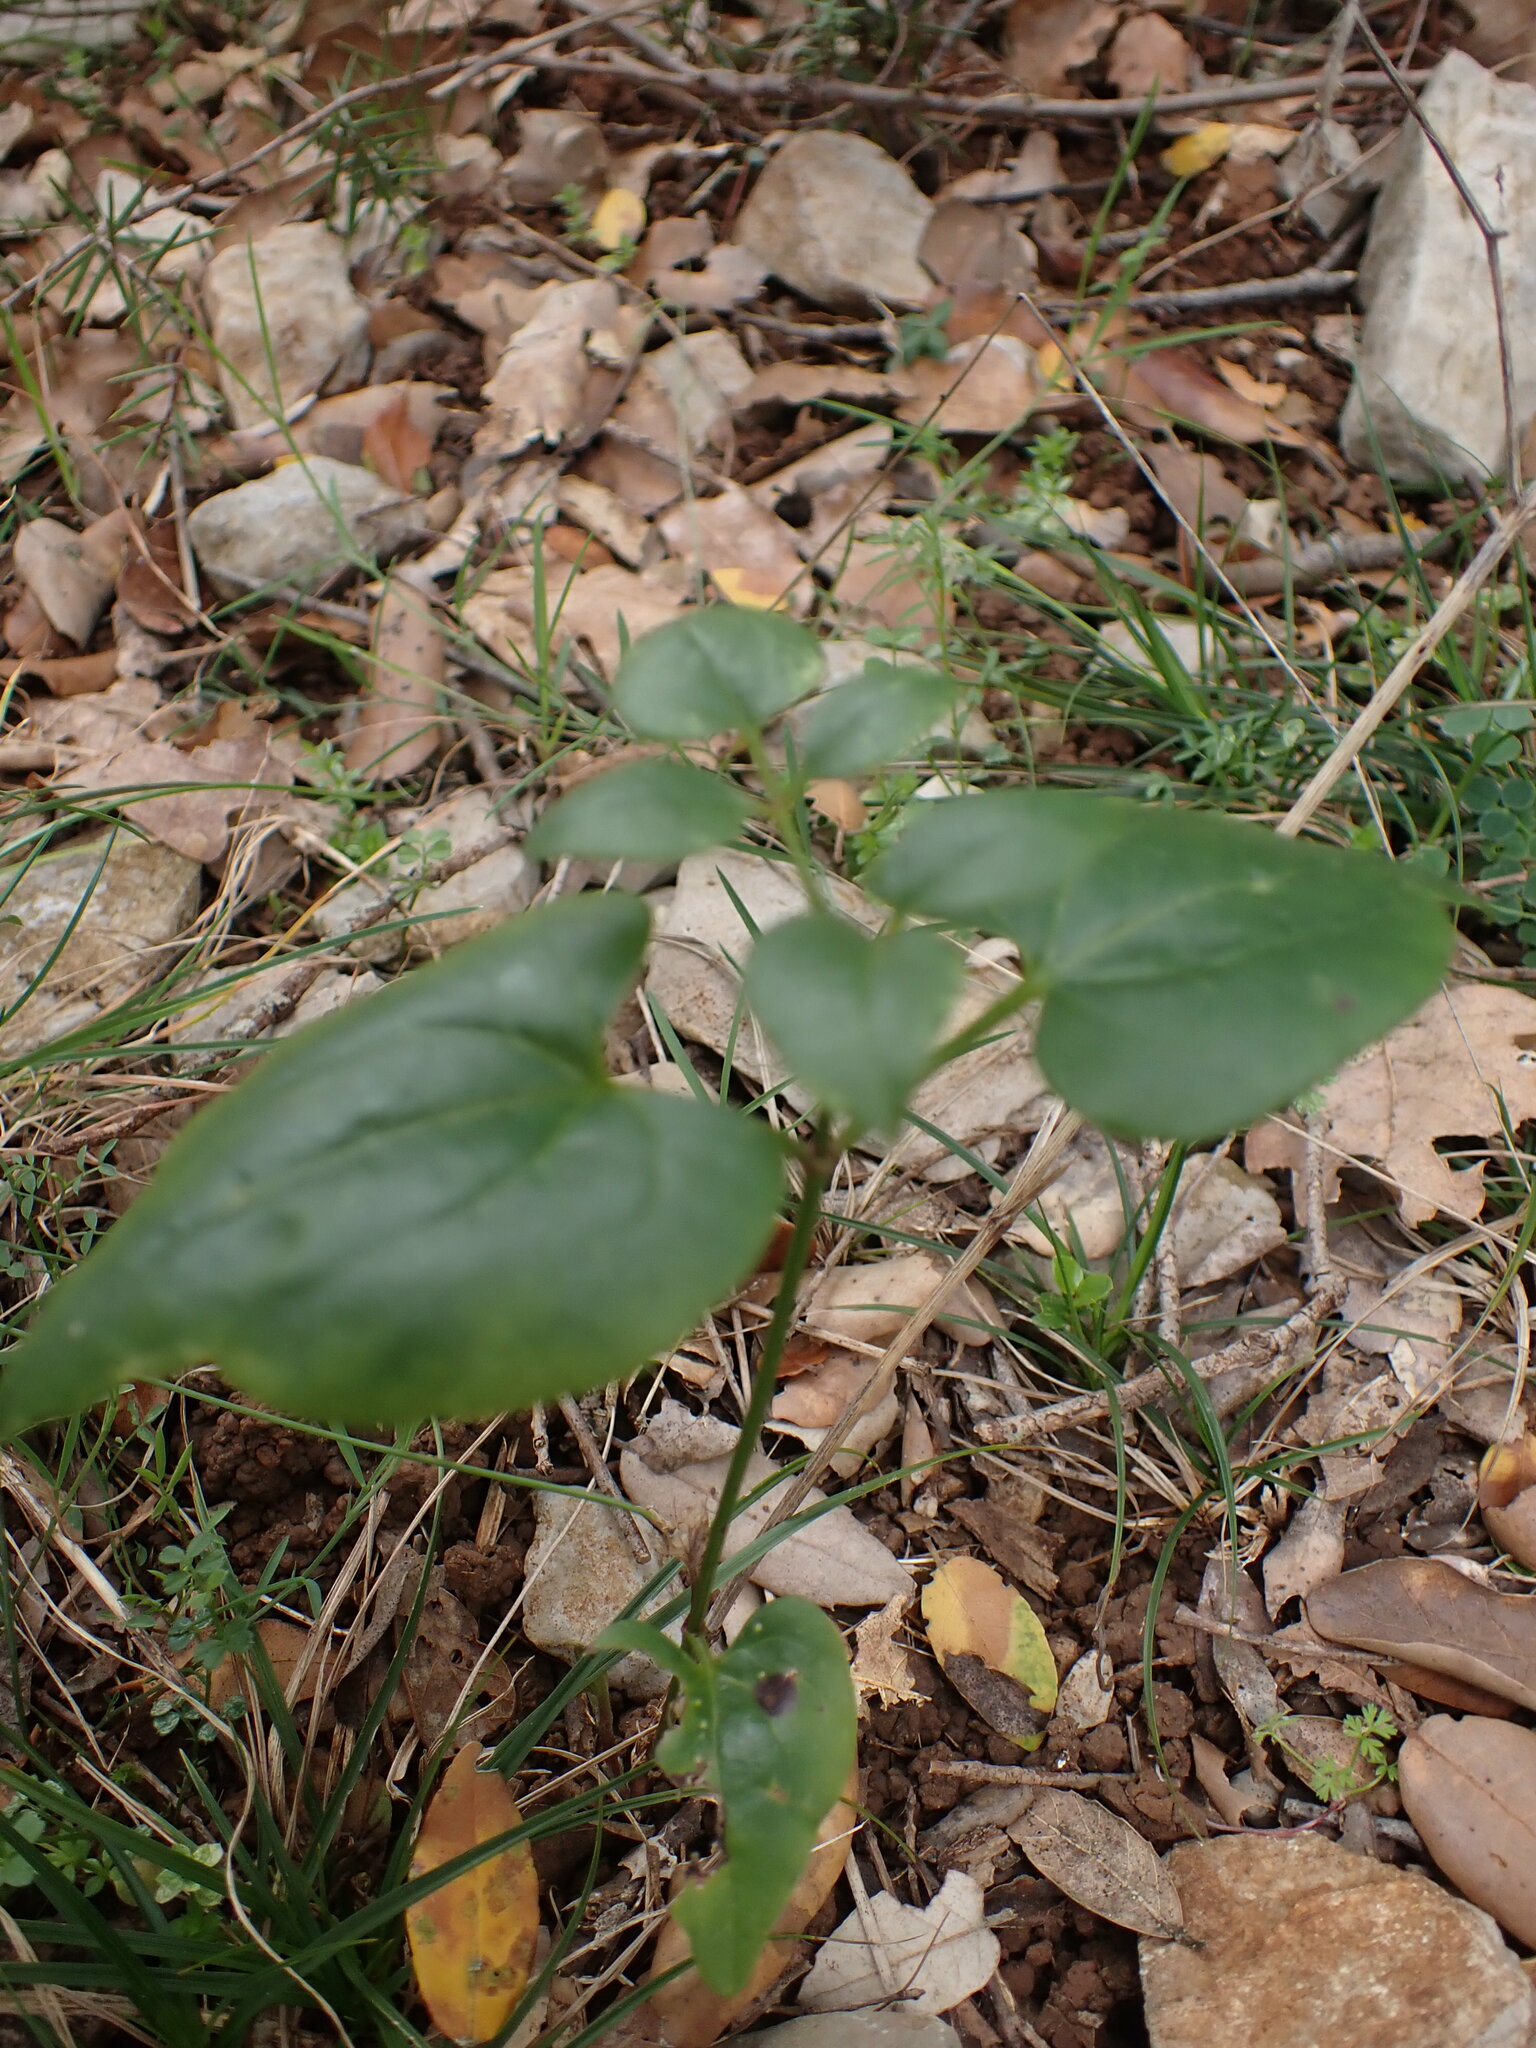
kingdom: Plantae
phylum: Tracheophyta
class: Magnoliopsida
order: Ranunculales
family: Ranunculaceae
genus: Clematis
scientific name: Clematis flammula
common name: Virgin's-bower
